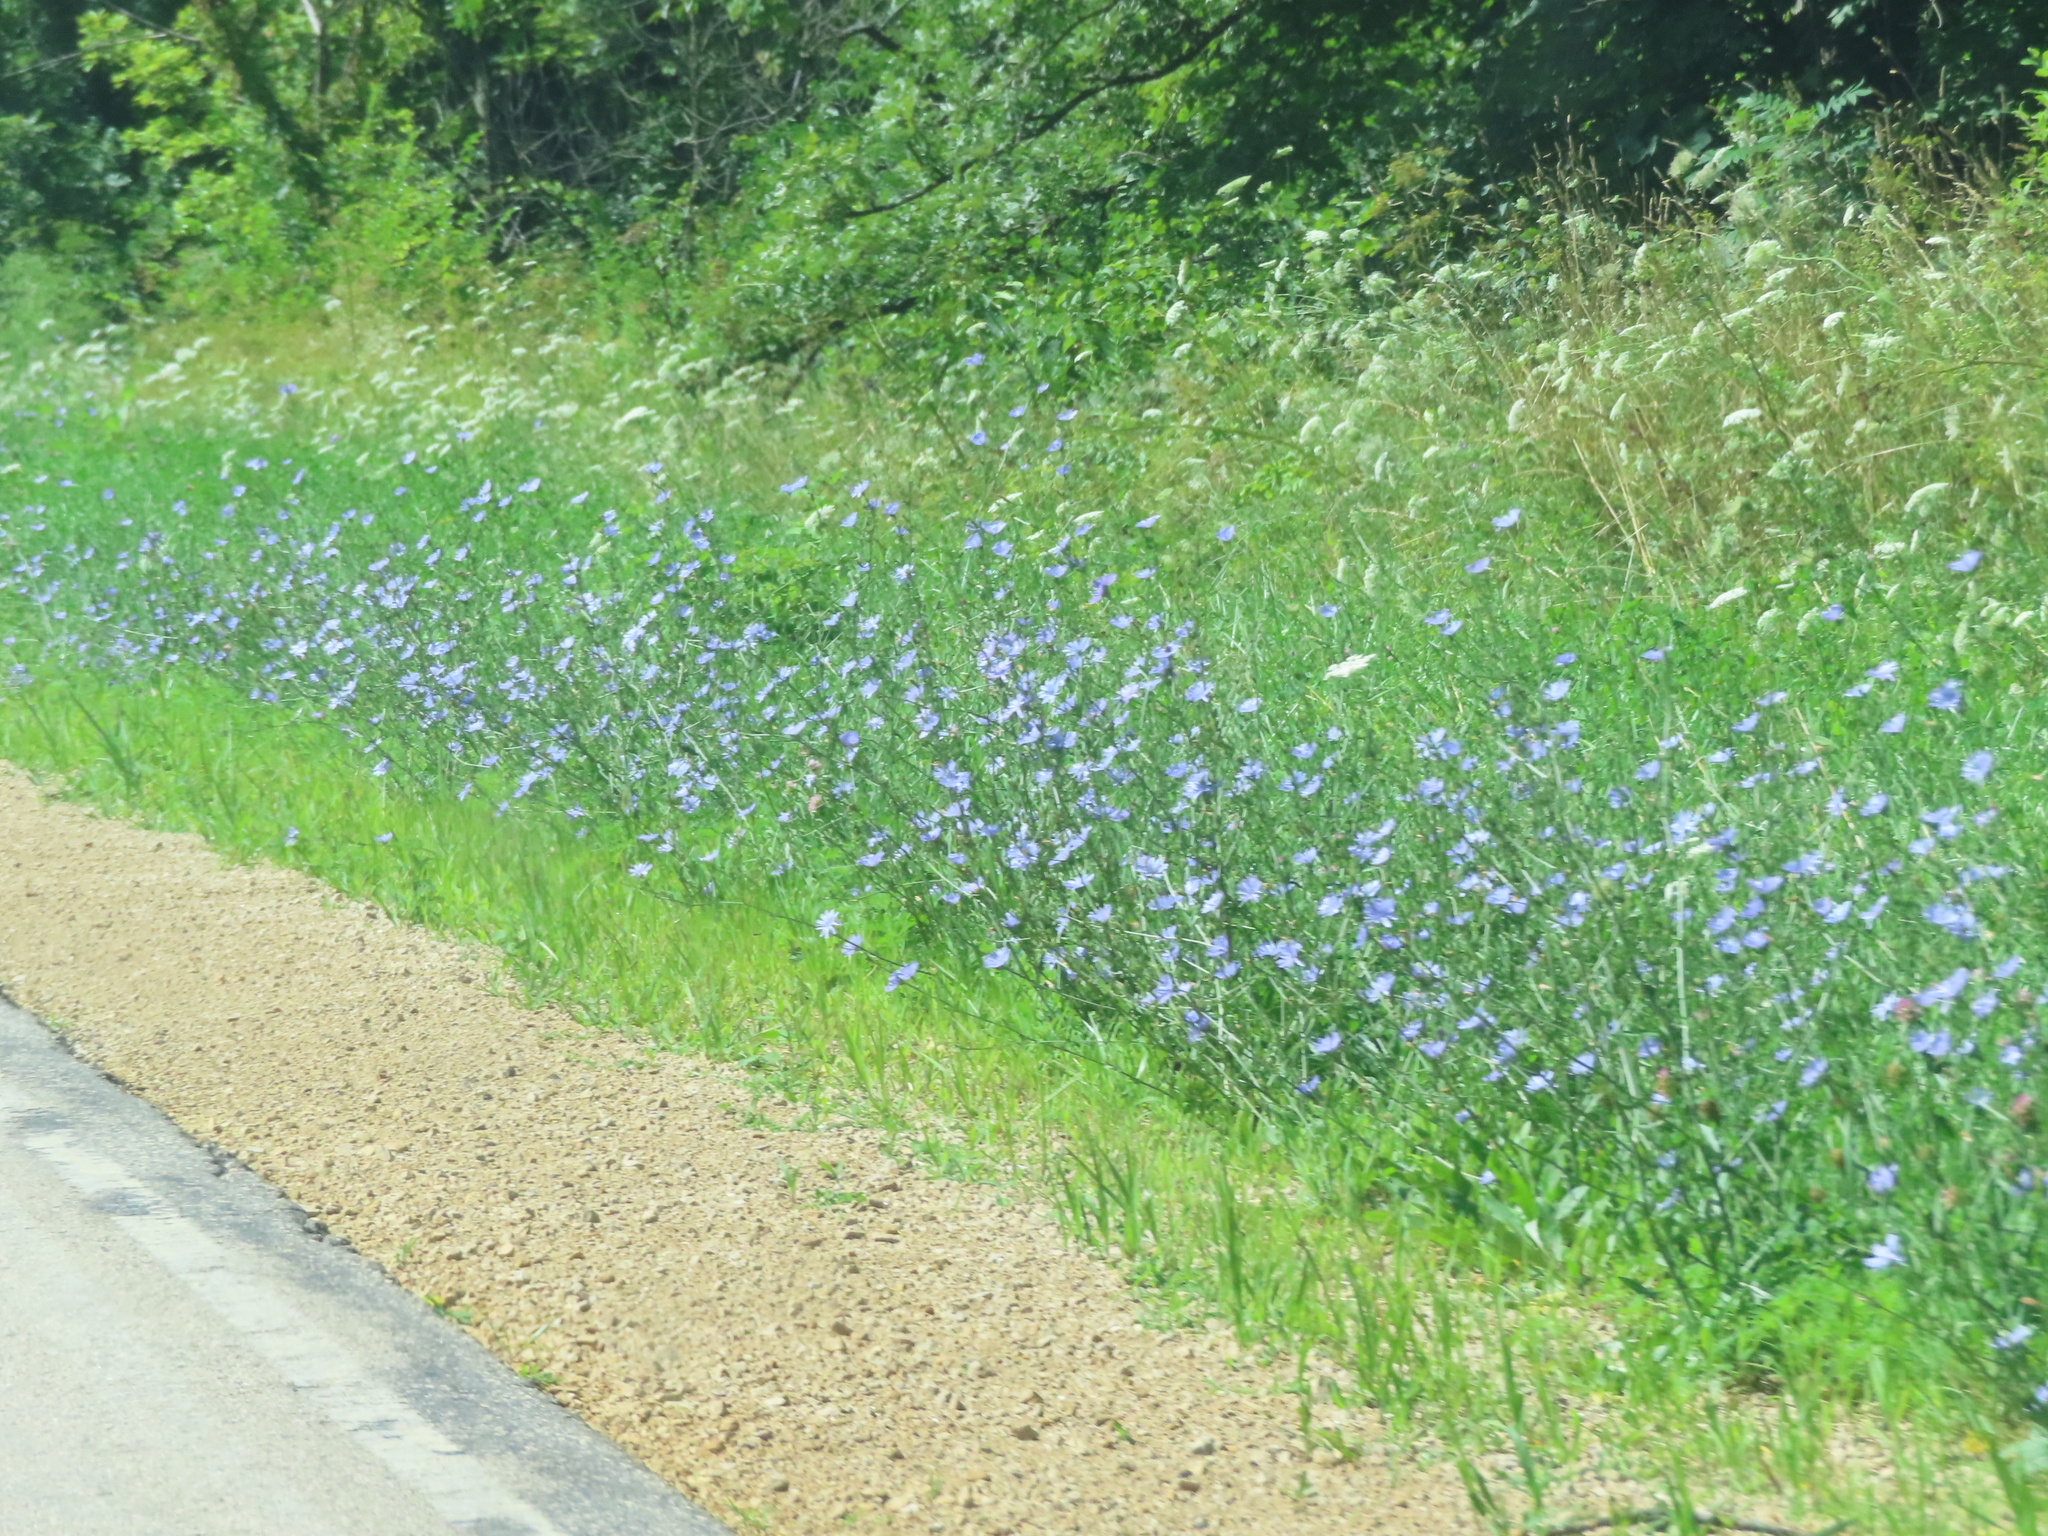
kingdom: Plantae
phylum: Tracheophyta
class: Magnoliopsida
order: Asterales
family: Asteraceae
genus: Cichorium
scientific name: Cichorium intybus
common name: Chicory
